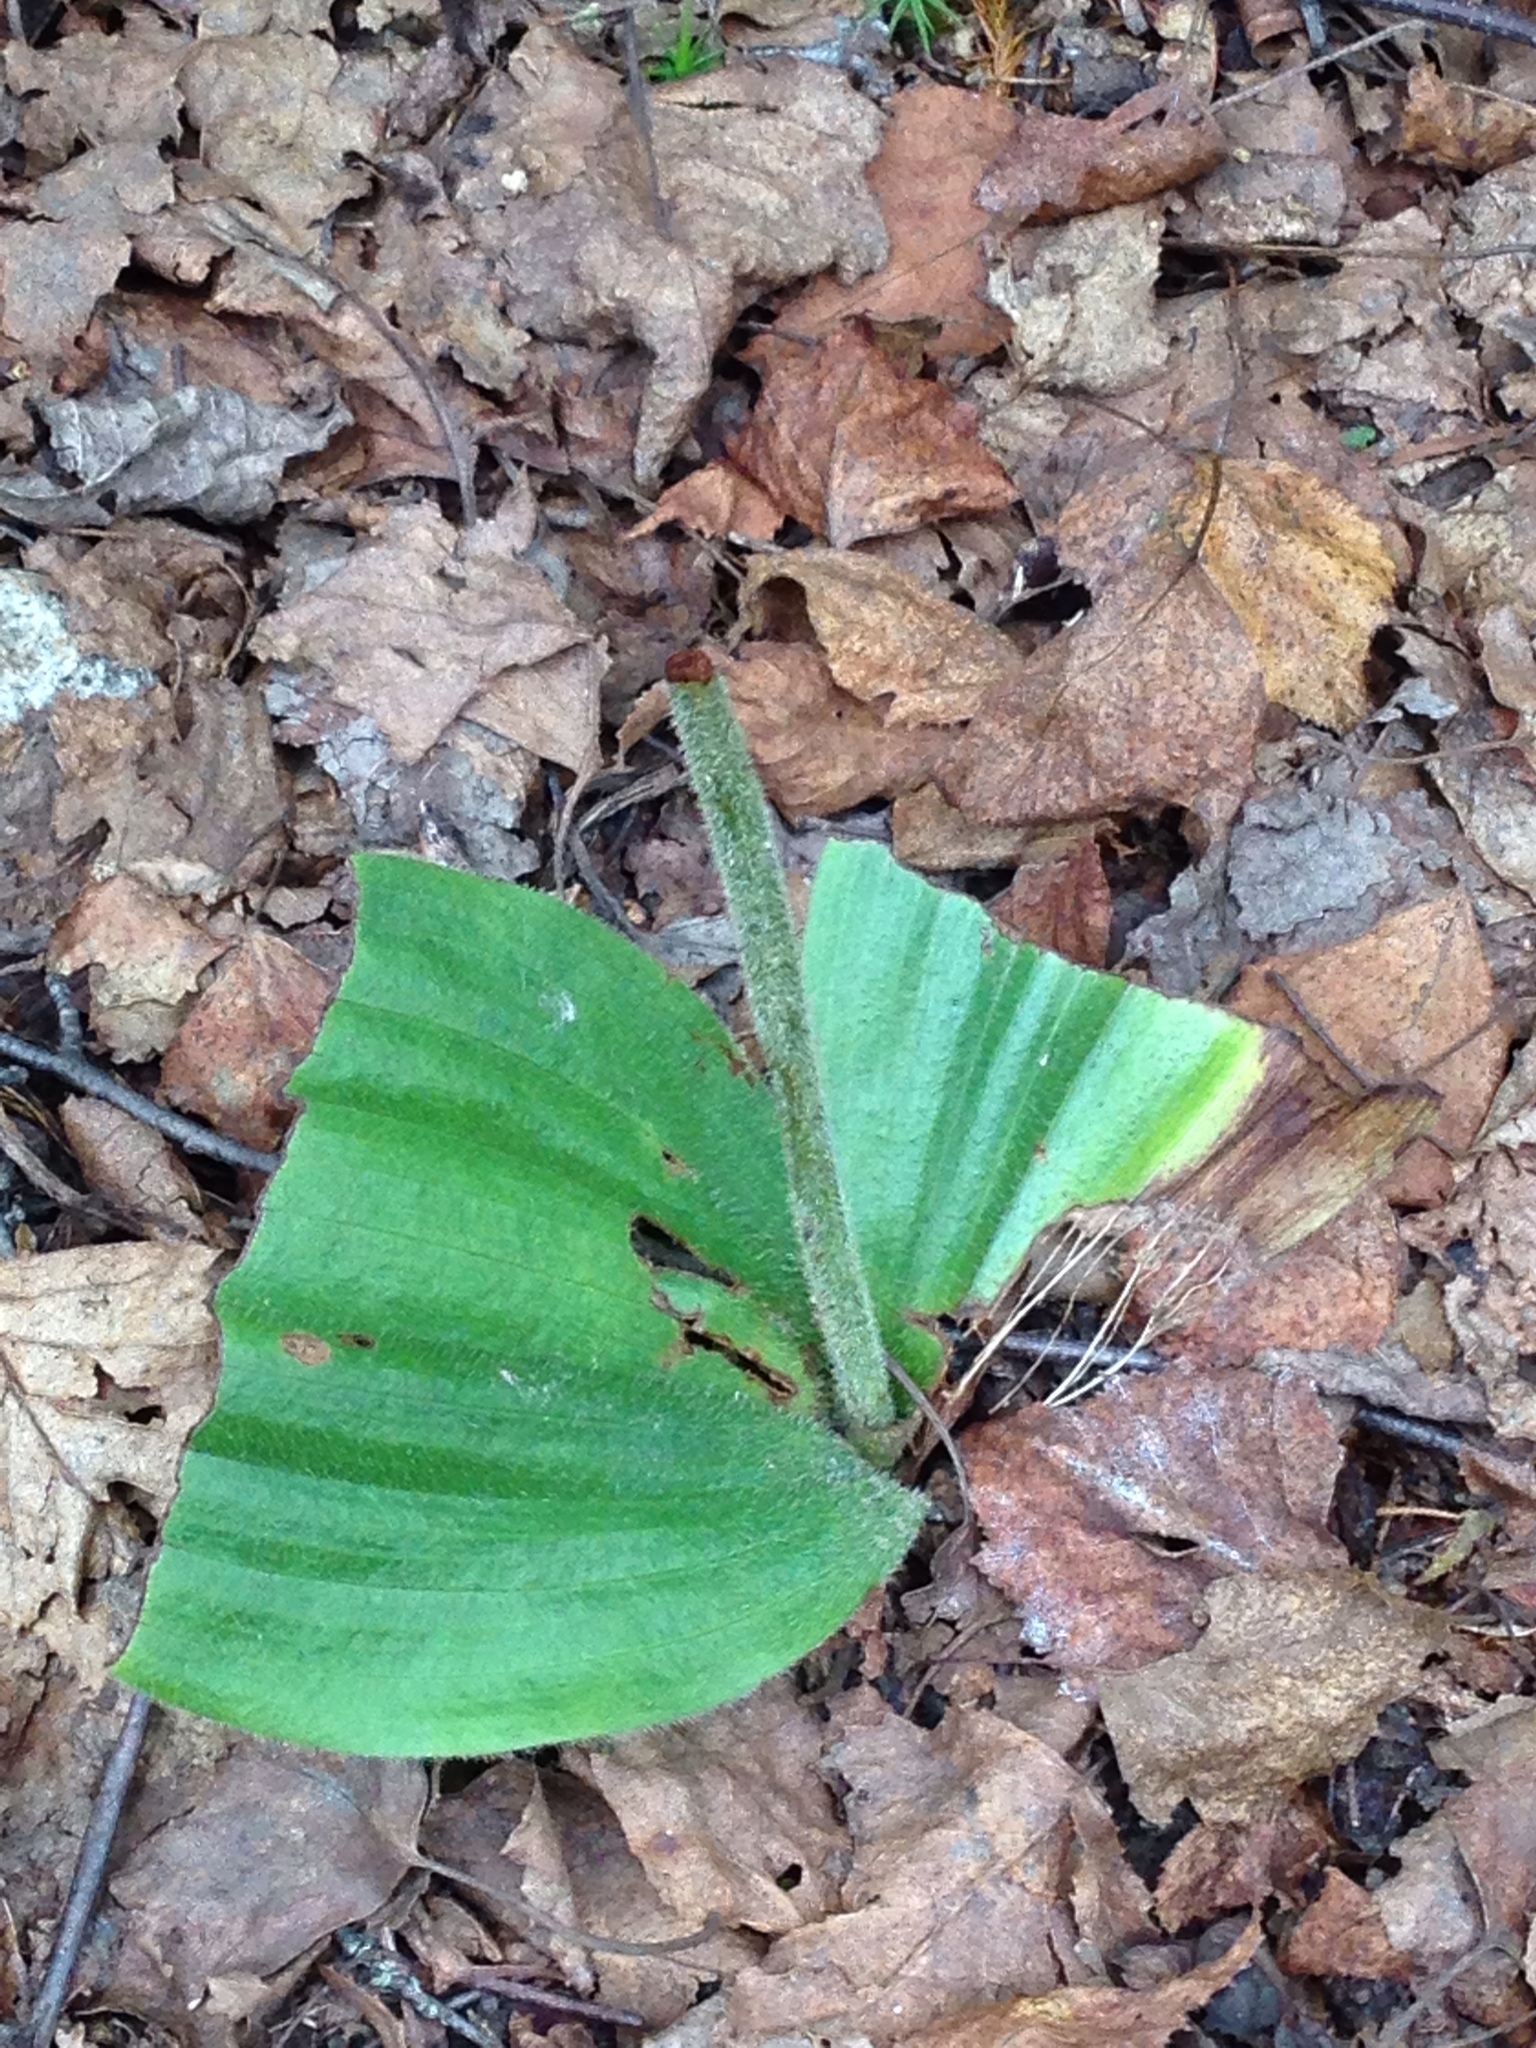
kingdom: Plantae
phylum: Tracheophyta
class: Liliopsida
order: Asparagales
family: Orchidaceae
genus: Cypripedium
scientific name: Cypripedium acaule
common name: Pink lady's-slipper
